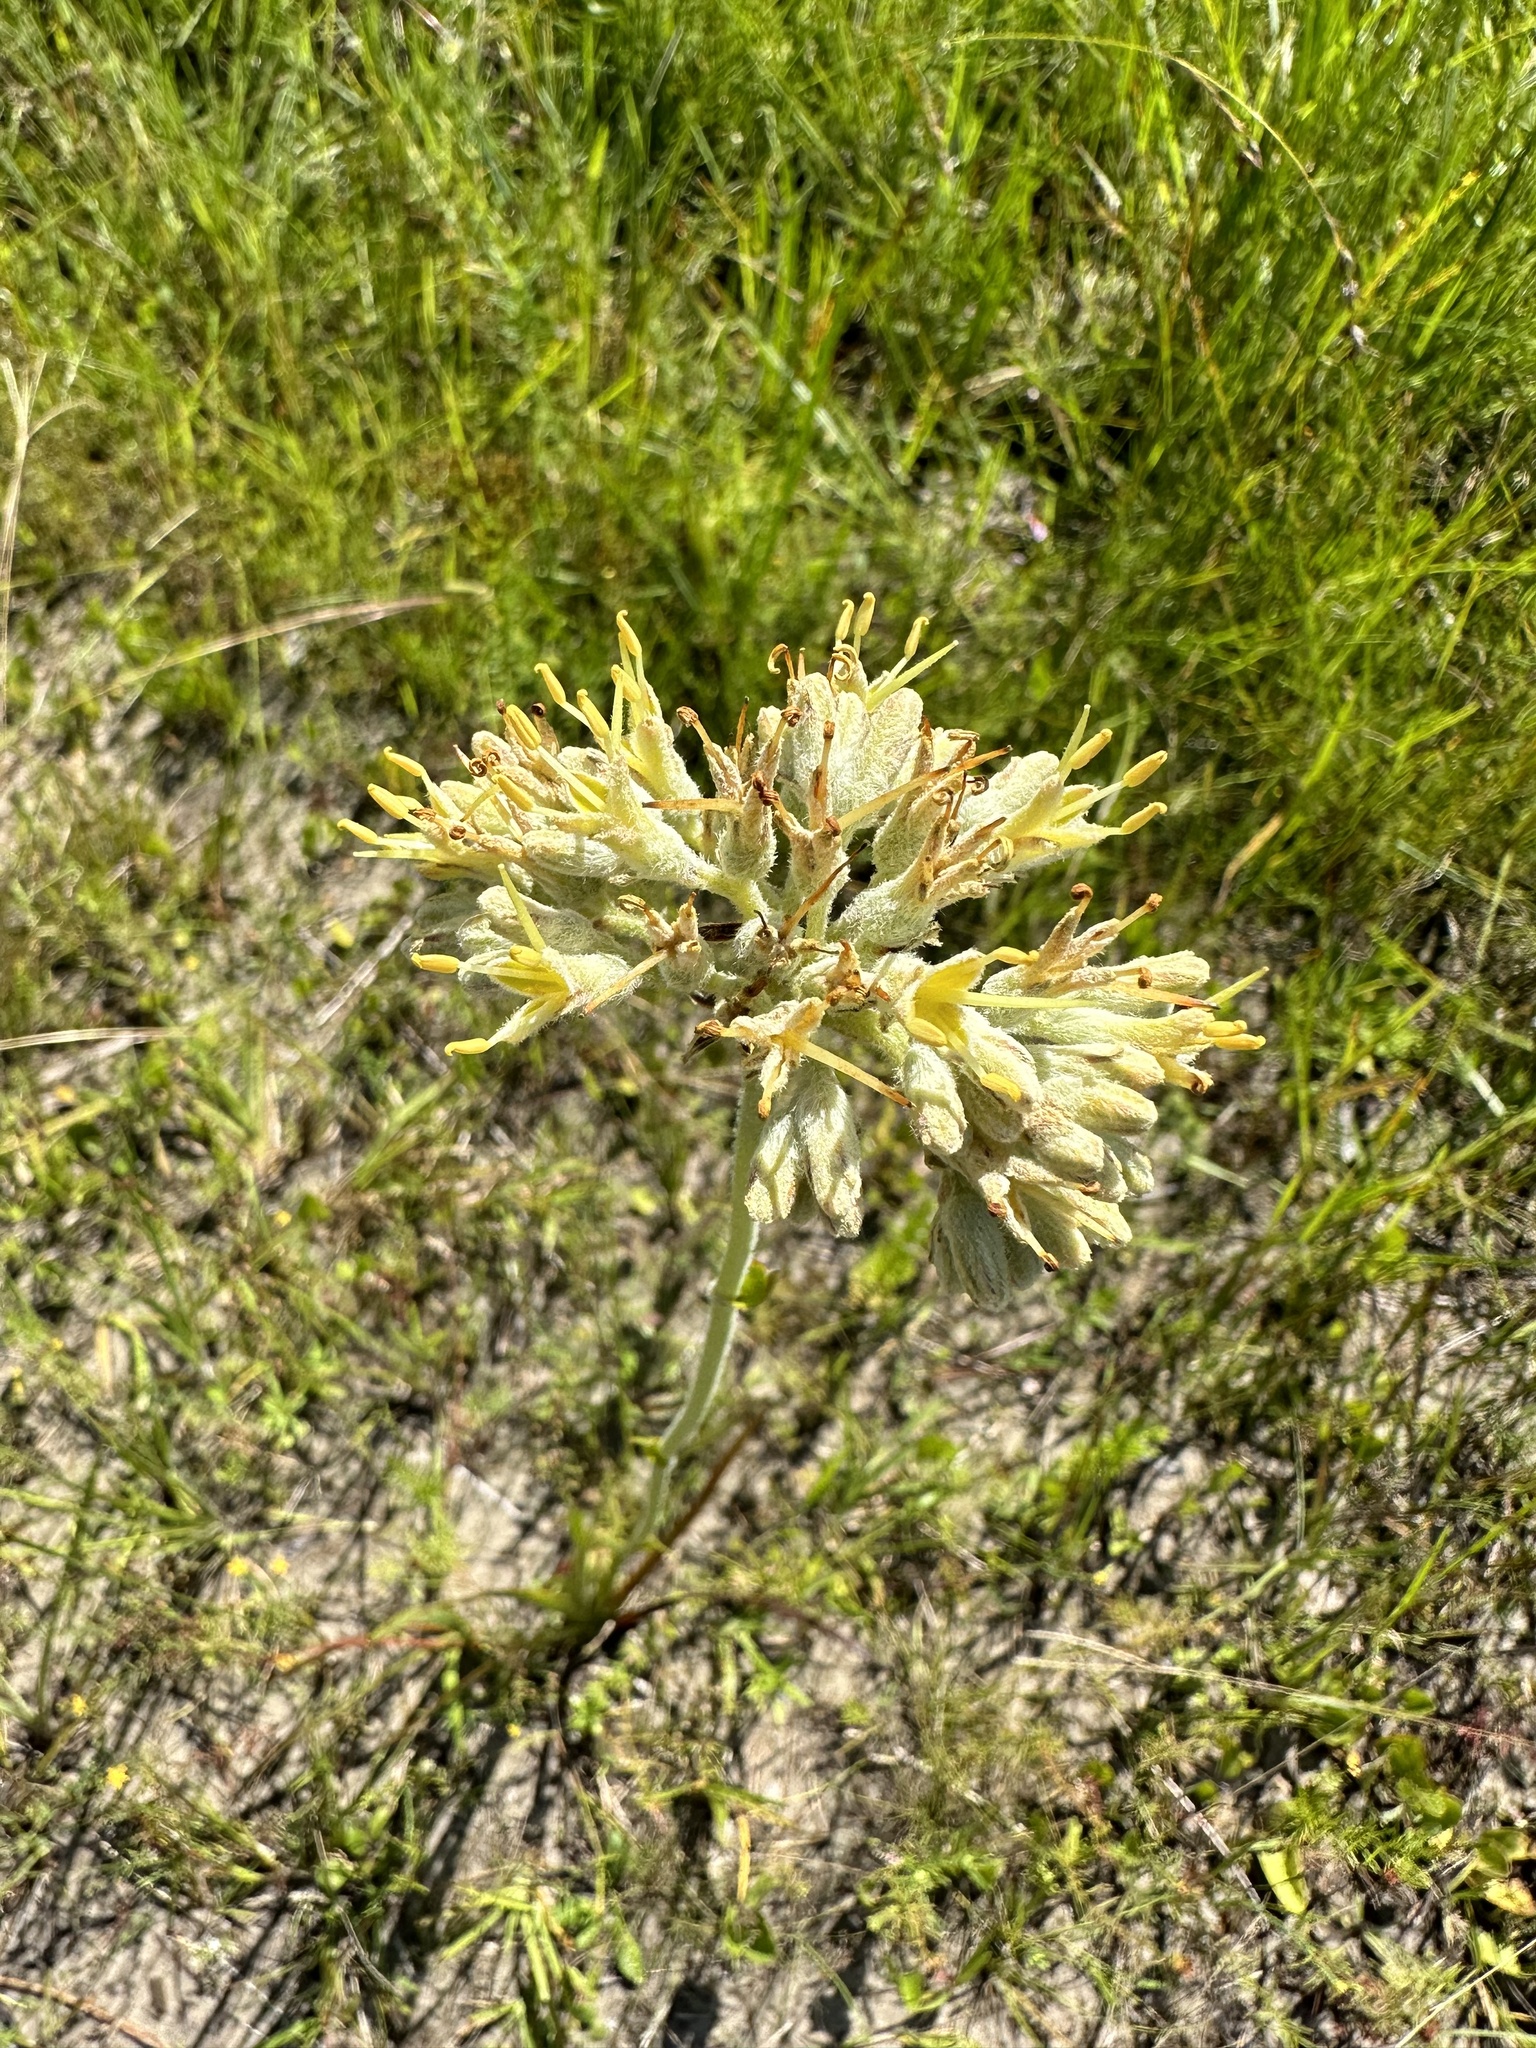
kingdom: Plantae
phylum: Tracheophyta
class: Liliopsida
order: Commelinales
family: Haemodoraceae
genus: Lachnanthes
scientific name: Lachnanthes caroliana
